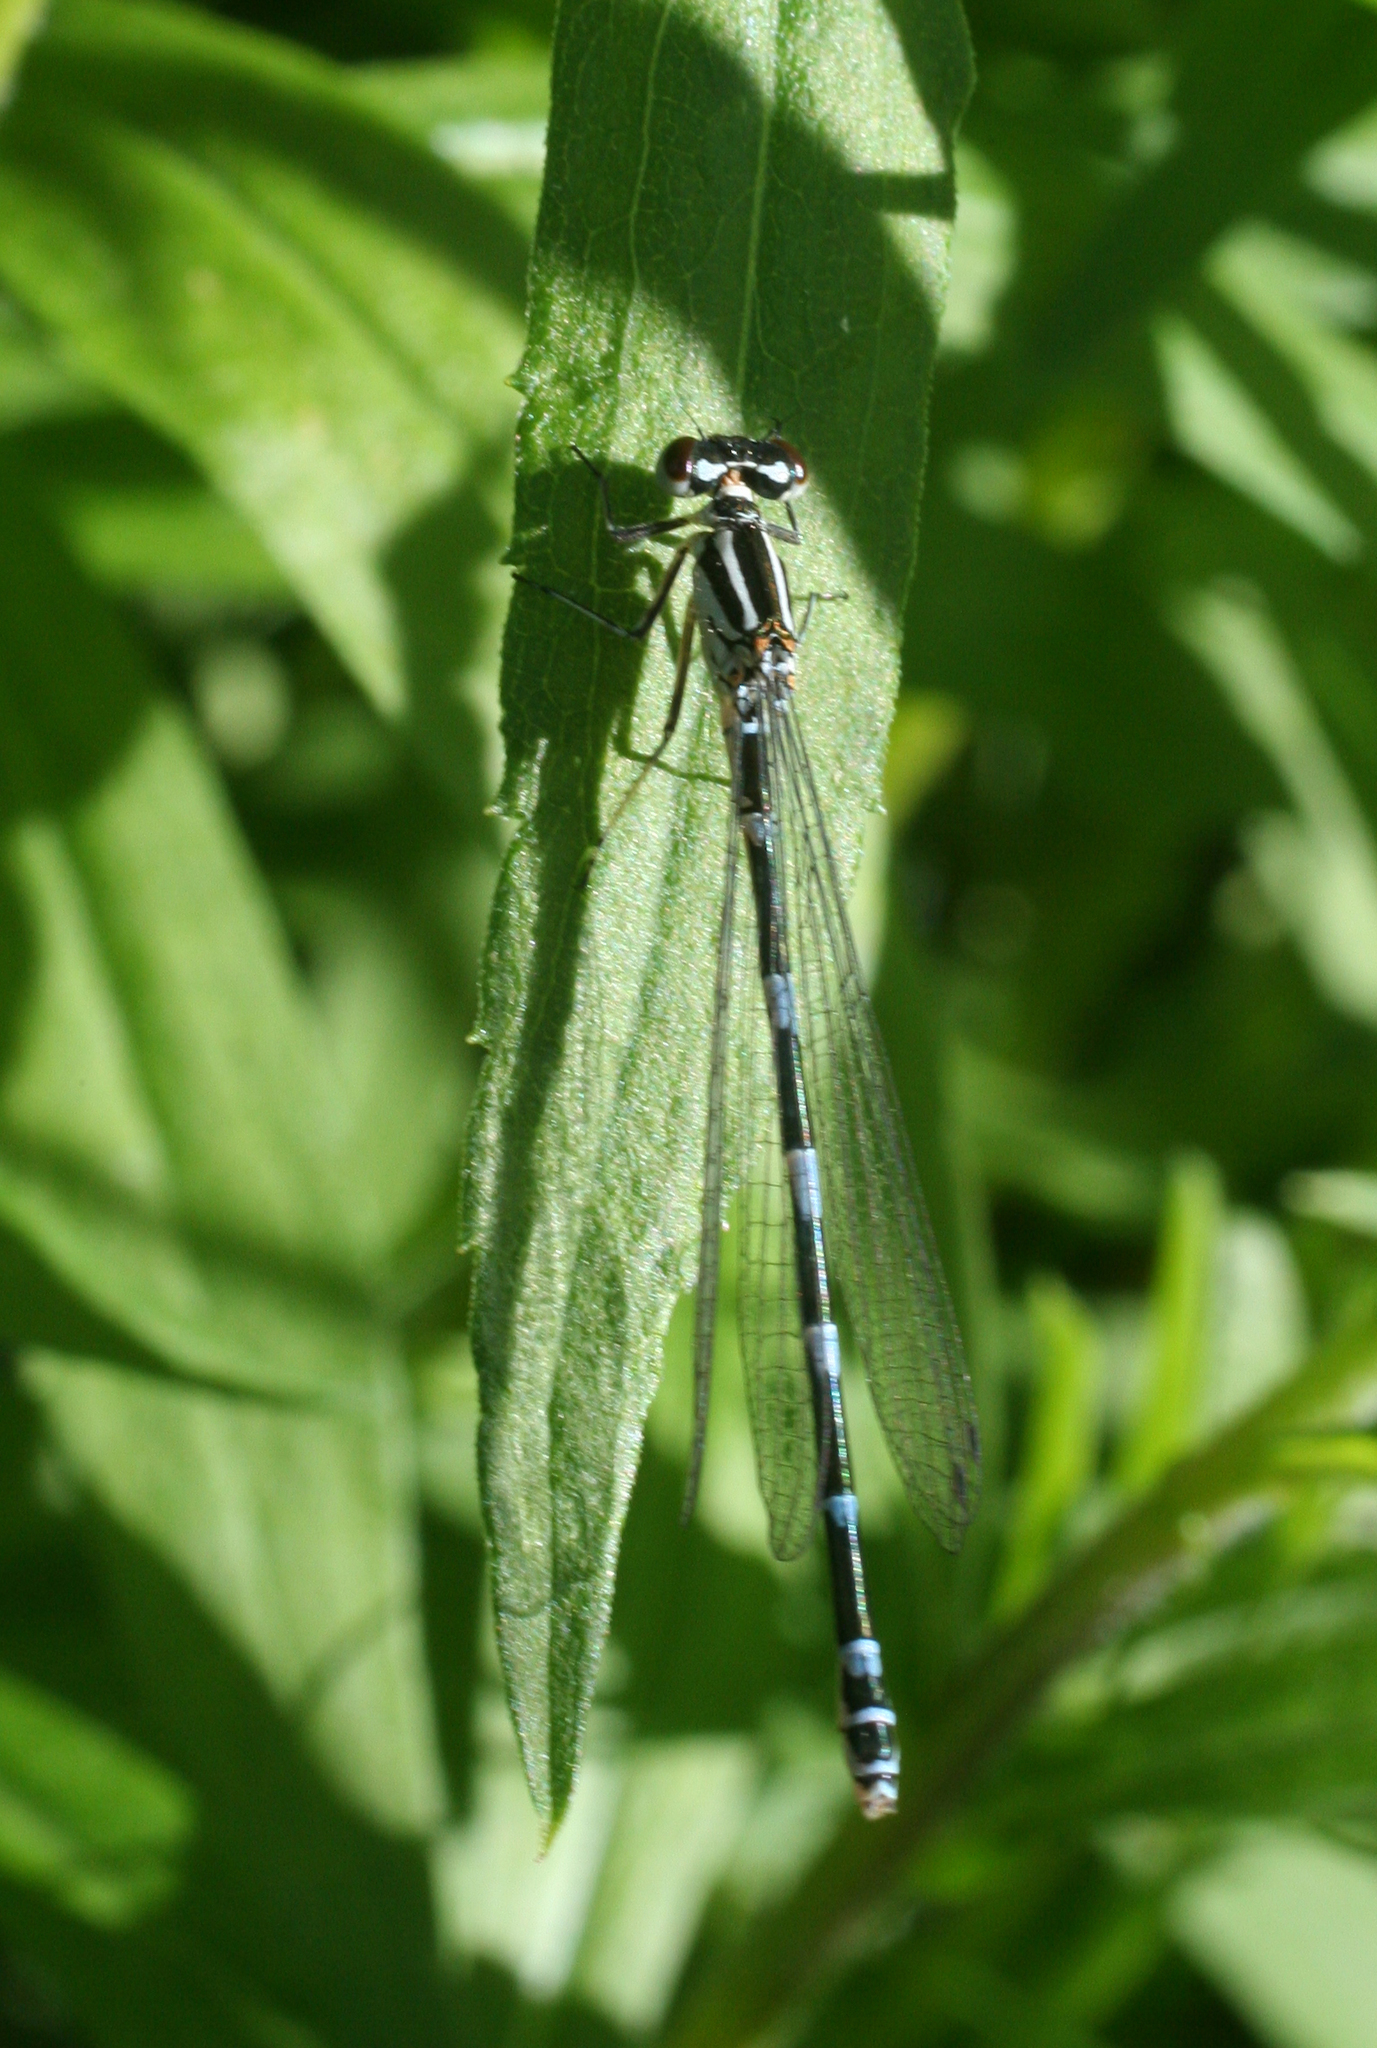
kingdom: Animalia
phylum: Arthropoda
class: Insecta
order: Odonata
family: Coenagrionidae
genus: Coenagrion
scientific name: Coenagrion puella
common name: Azure damselfly
